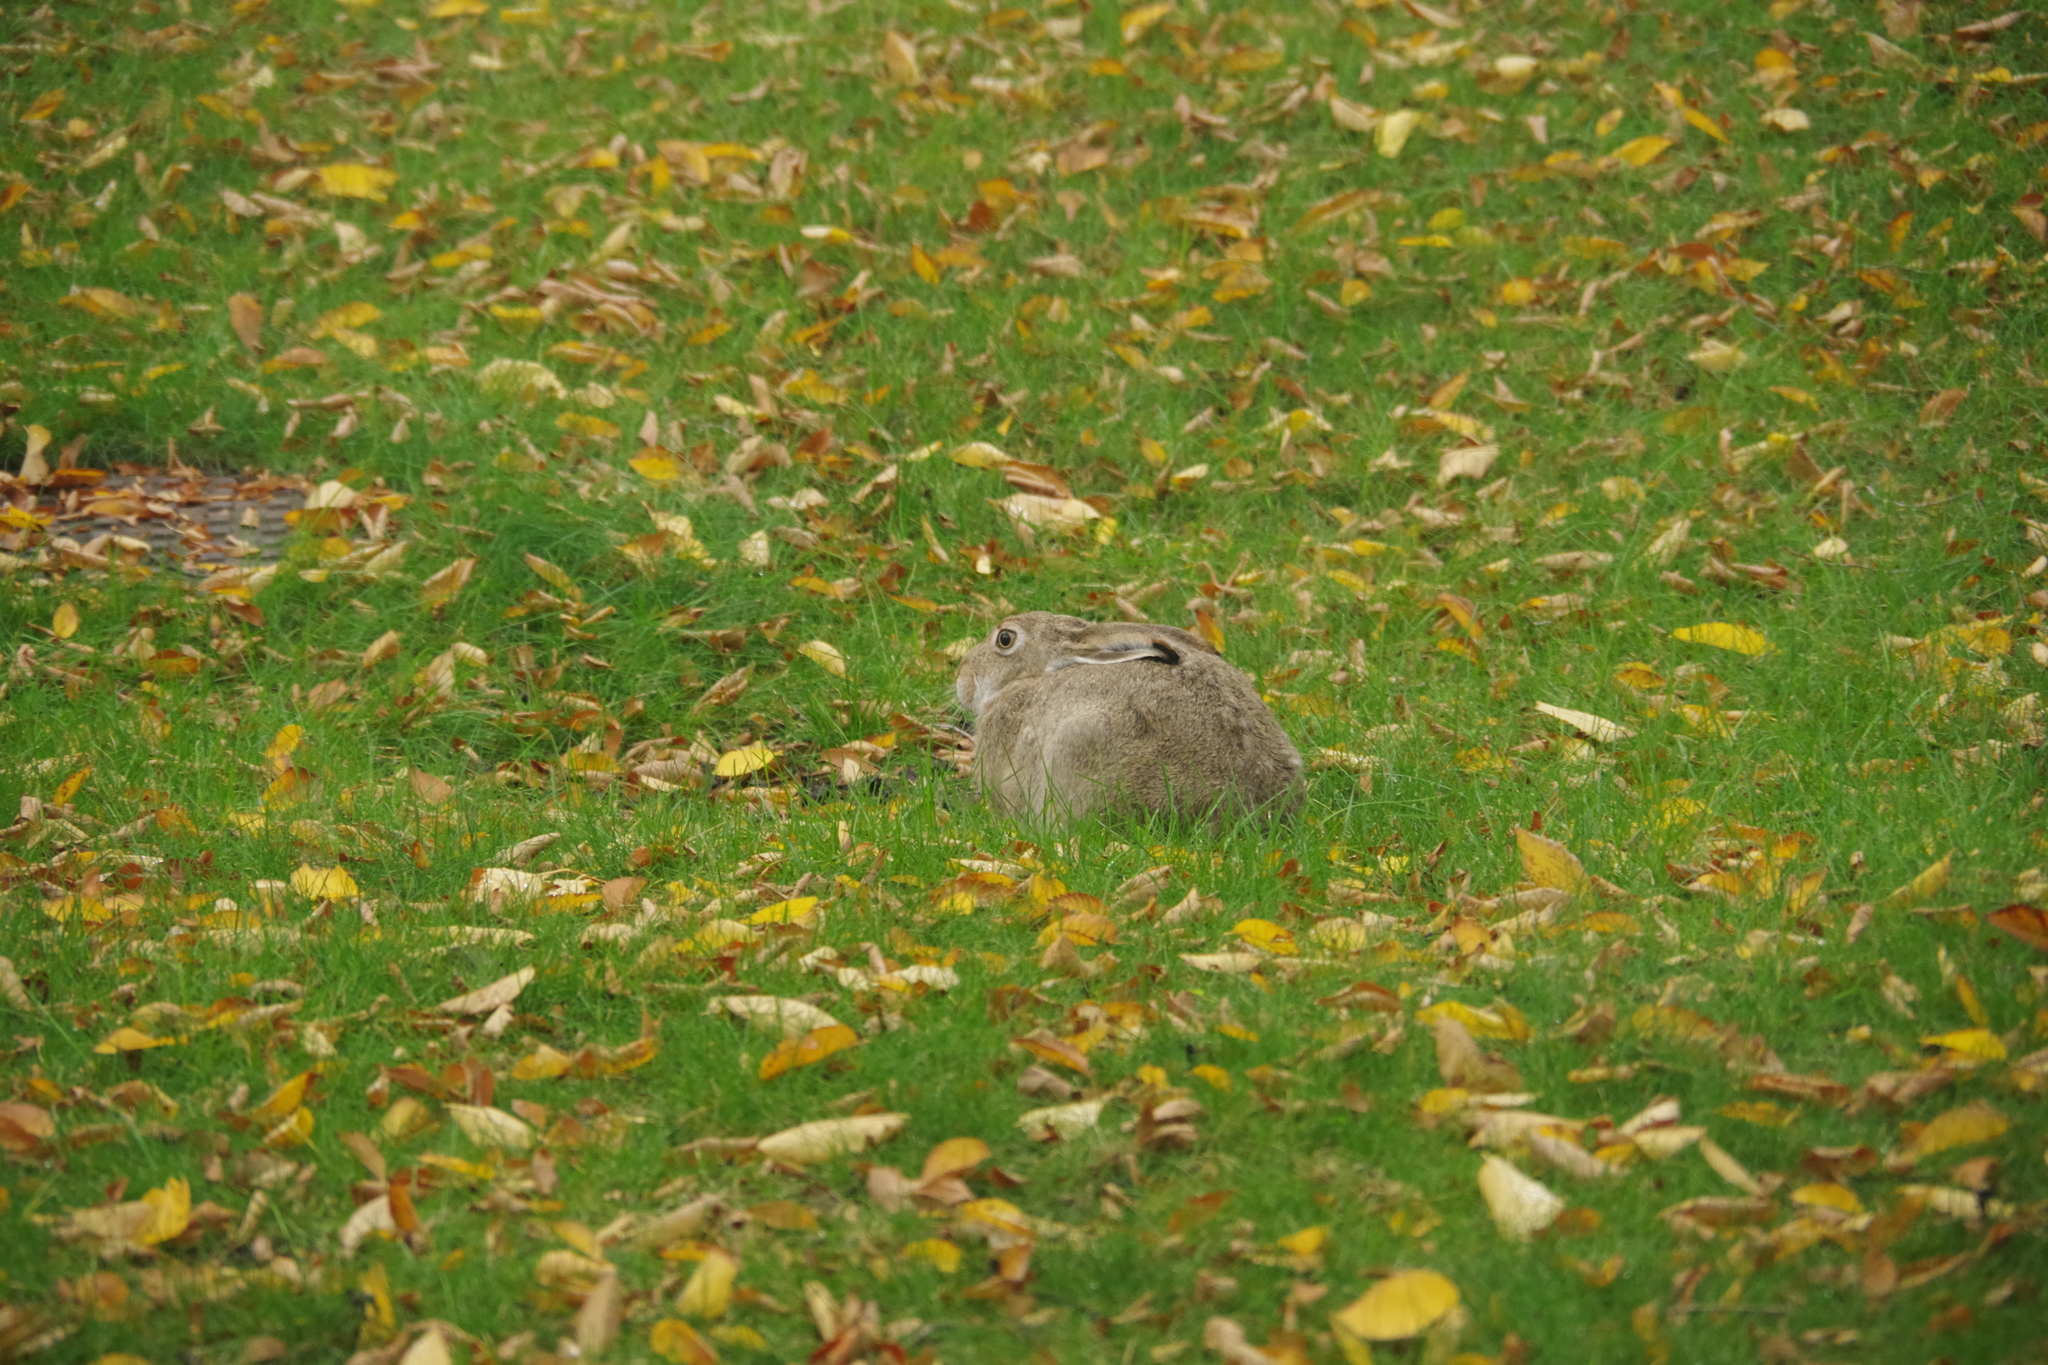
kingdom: Animalia
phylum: Chordata
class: Mammalia
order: Lagomorpha
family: Leporidae
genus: Lepus
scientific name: Lepus townsendii
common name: White-tailed jackrabbit
